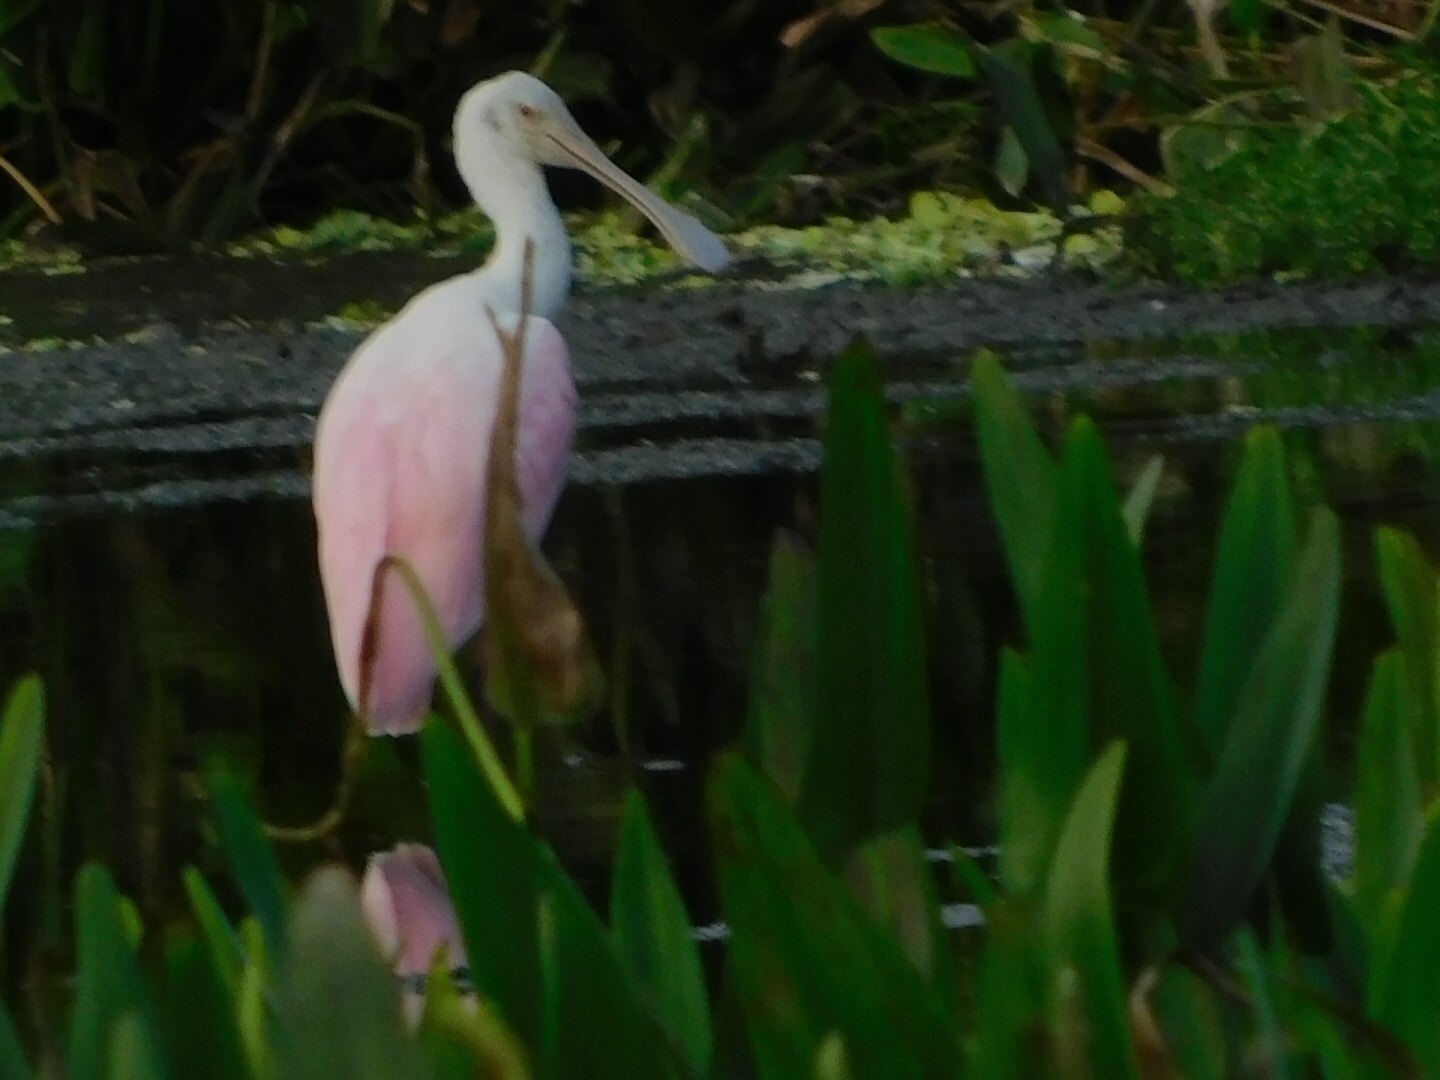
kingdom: Animalia
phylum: Chordata
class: Aves
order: Pelecaniformes
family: Threskiornithidae
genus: Platalea
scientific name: Platalea ajaja
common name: Roseate spoonbill
